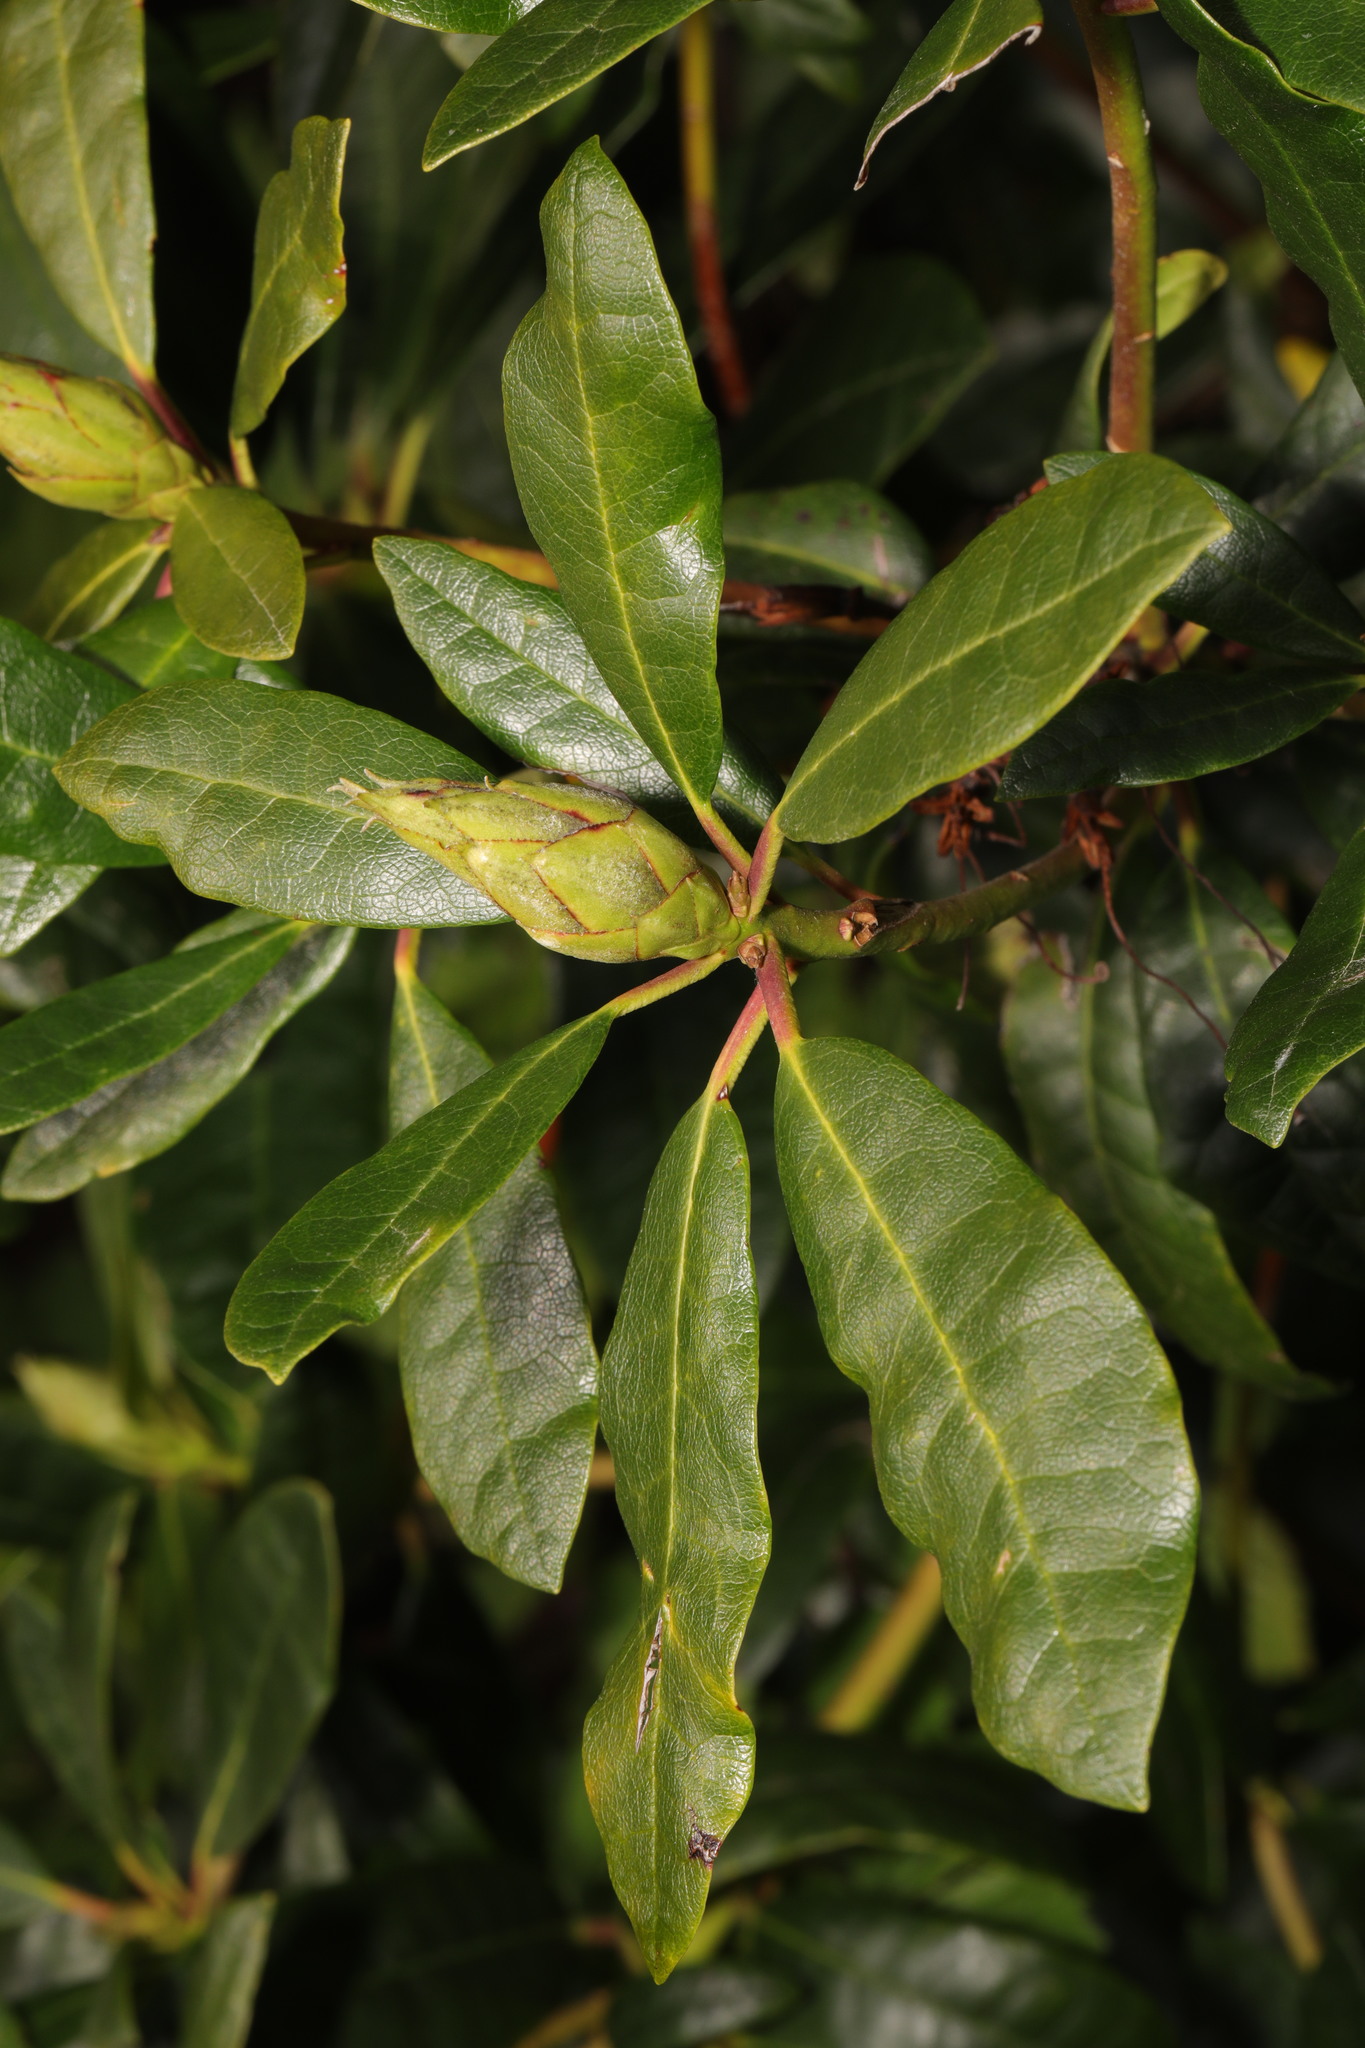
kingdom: Plantae
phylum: Tracheophyta
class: Magnoliopsida
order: Ericales
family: Ericaceae
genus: Rhododendron
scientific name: Rhododendron ponticum
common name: Rhododendron
